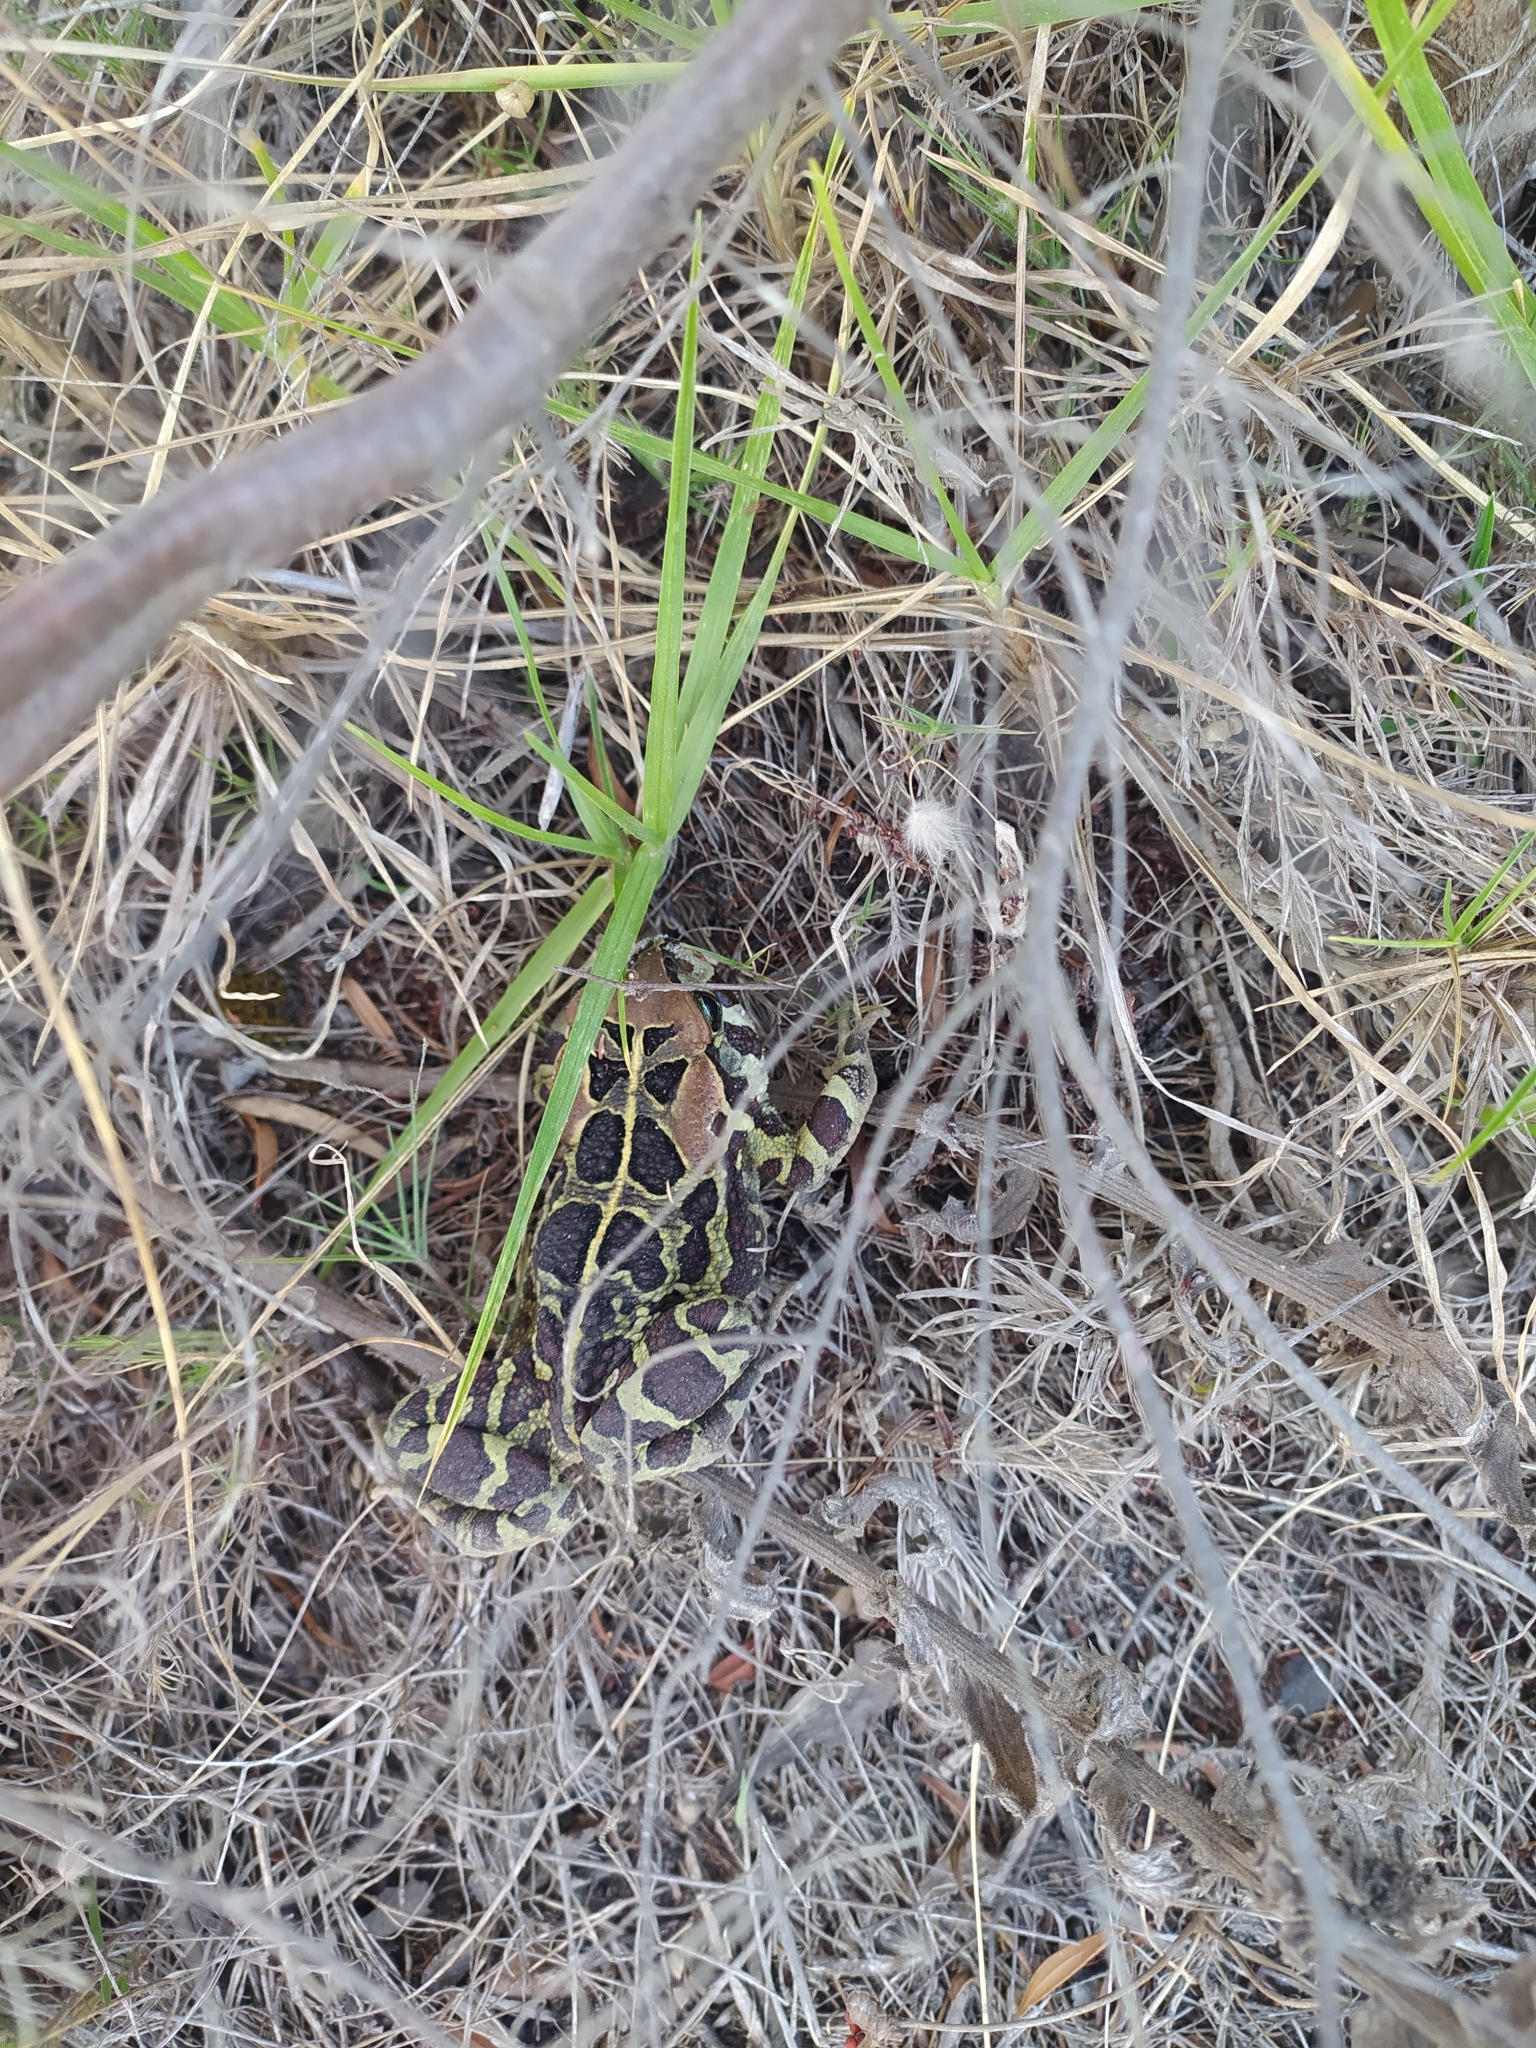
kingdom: Animalia
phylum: Chordata
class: Amphibia
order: Anura
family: Bufonidae
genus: Sclerophrys
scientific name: Sclerophrys pantherina
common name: Panther toad
